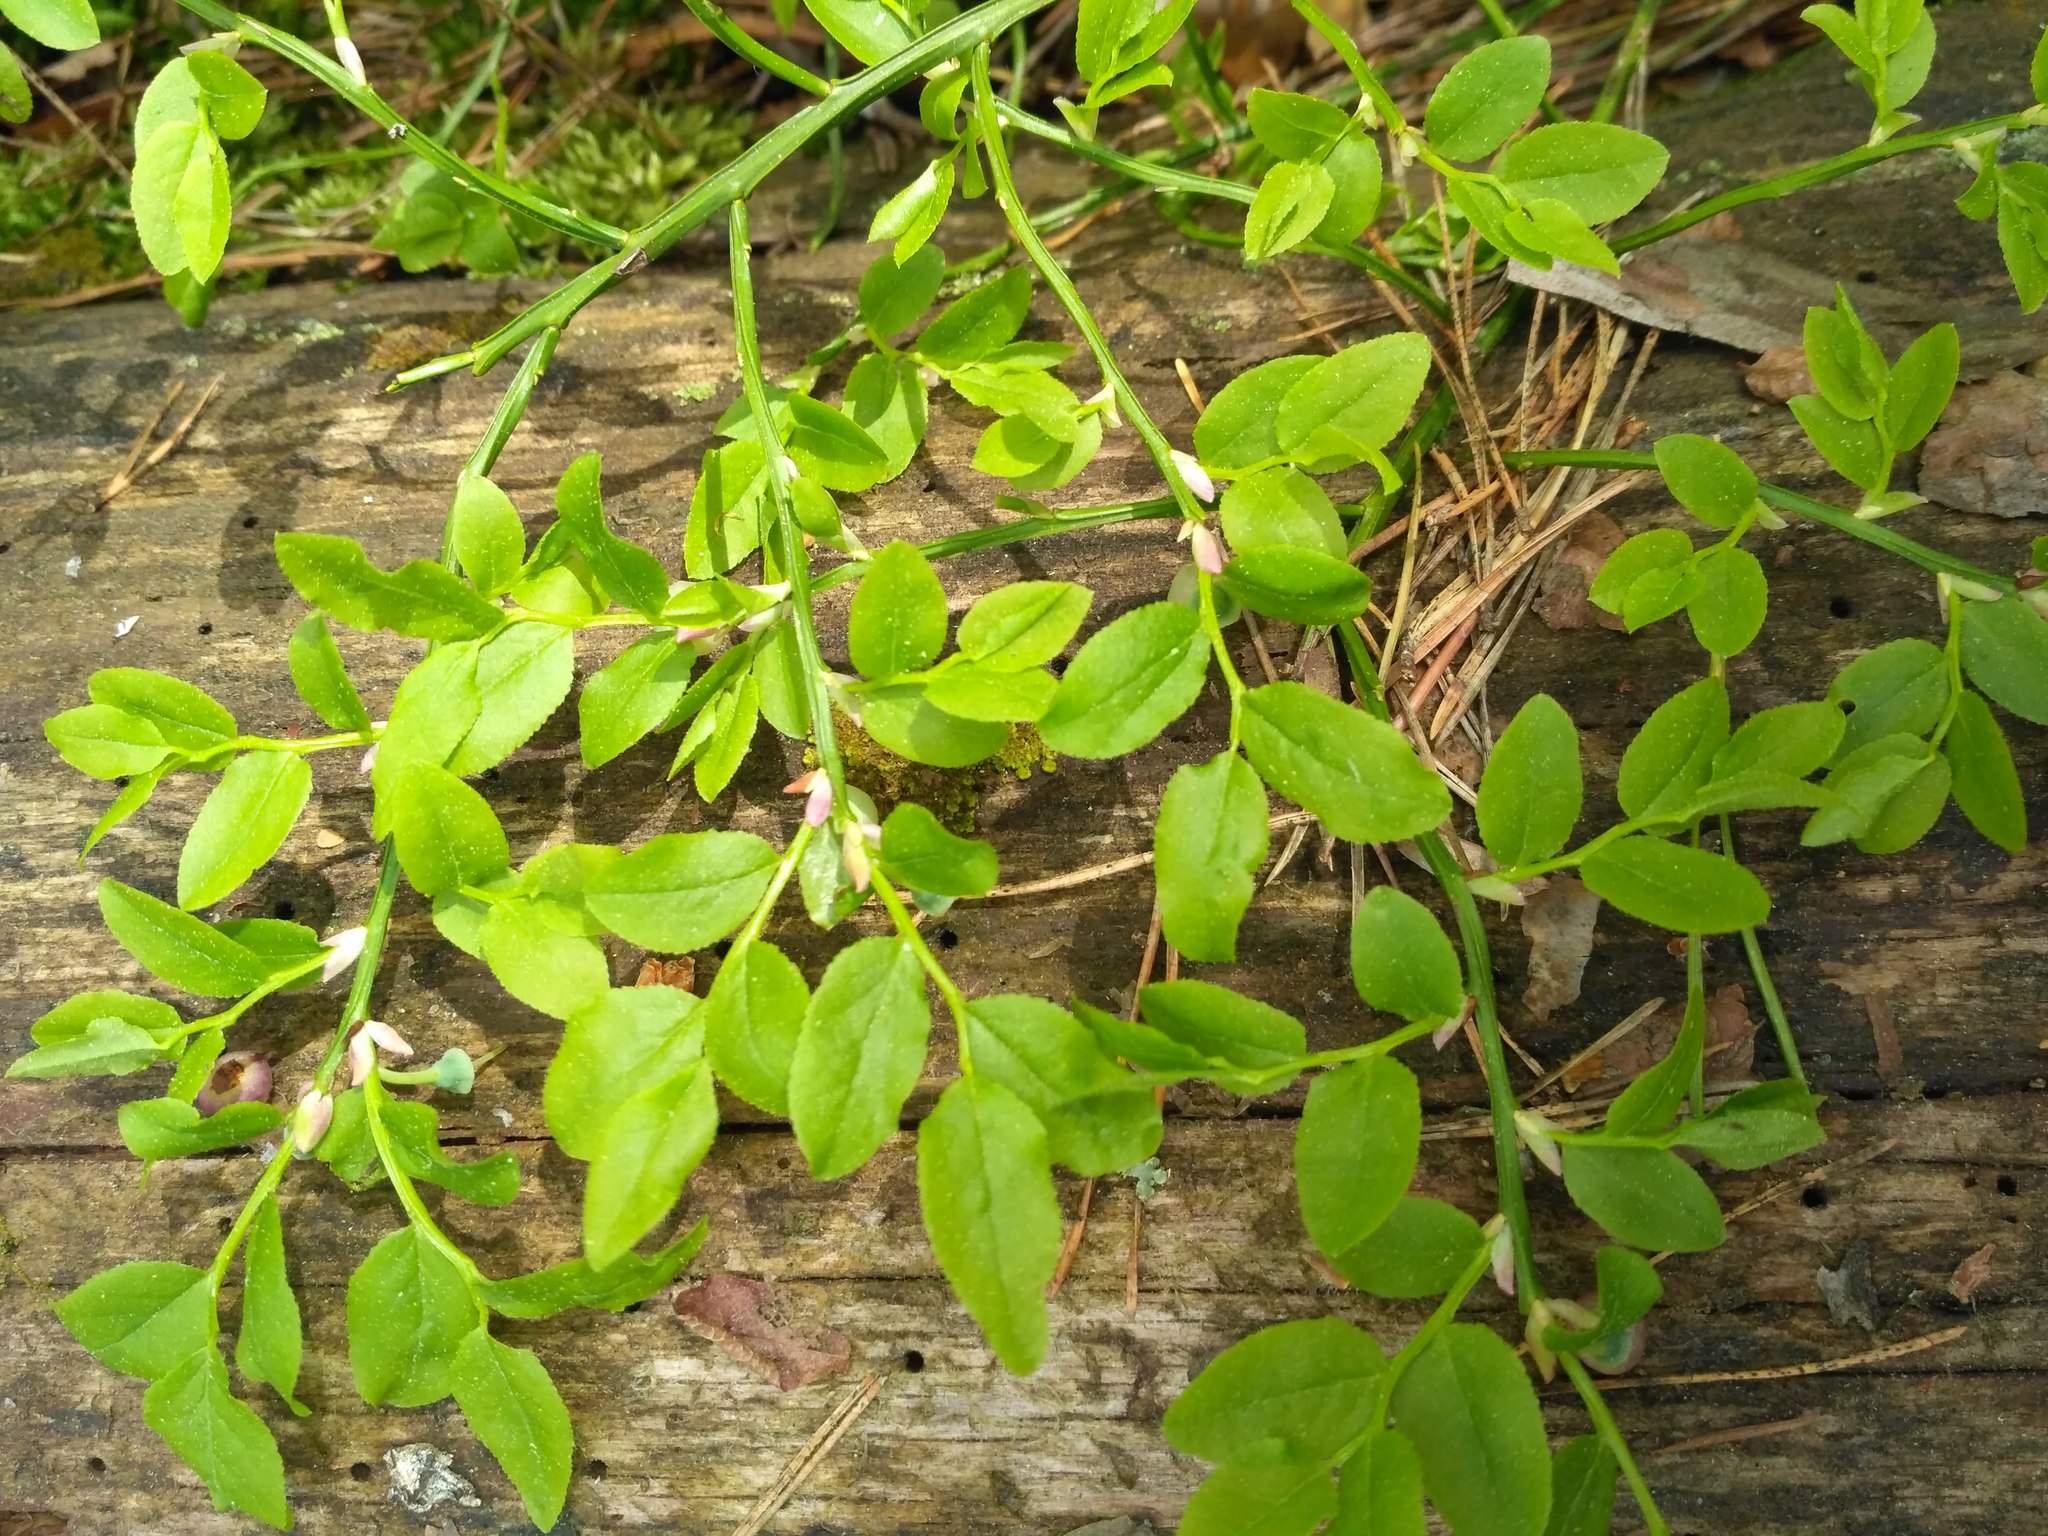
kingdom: Plantae
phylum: Tracheophyta
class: Magnoliopsida
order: Ericales
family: Ericaceae
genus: Vaccinium
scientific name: Vaccinium myrtillus
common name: Bilberry
